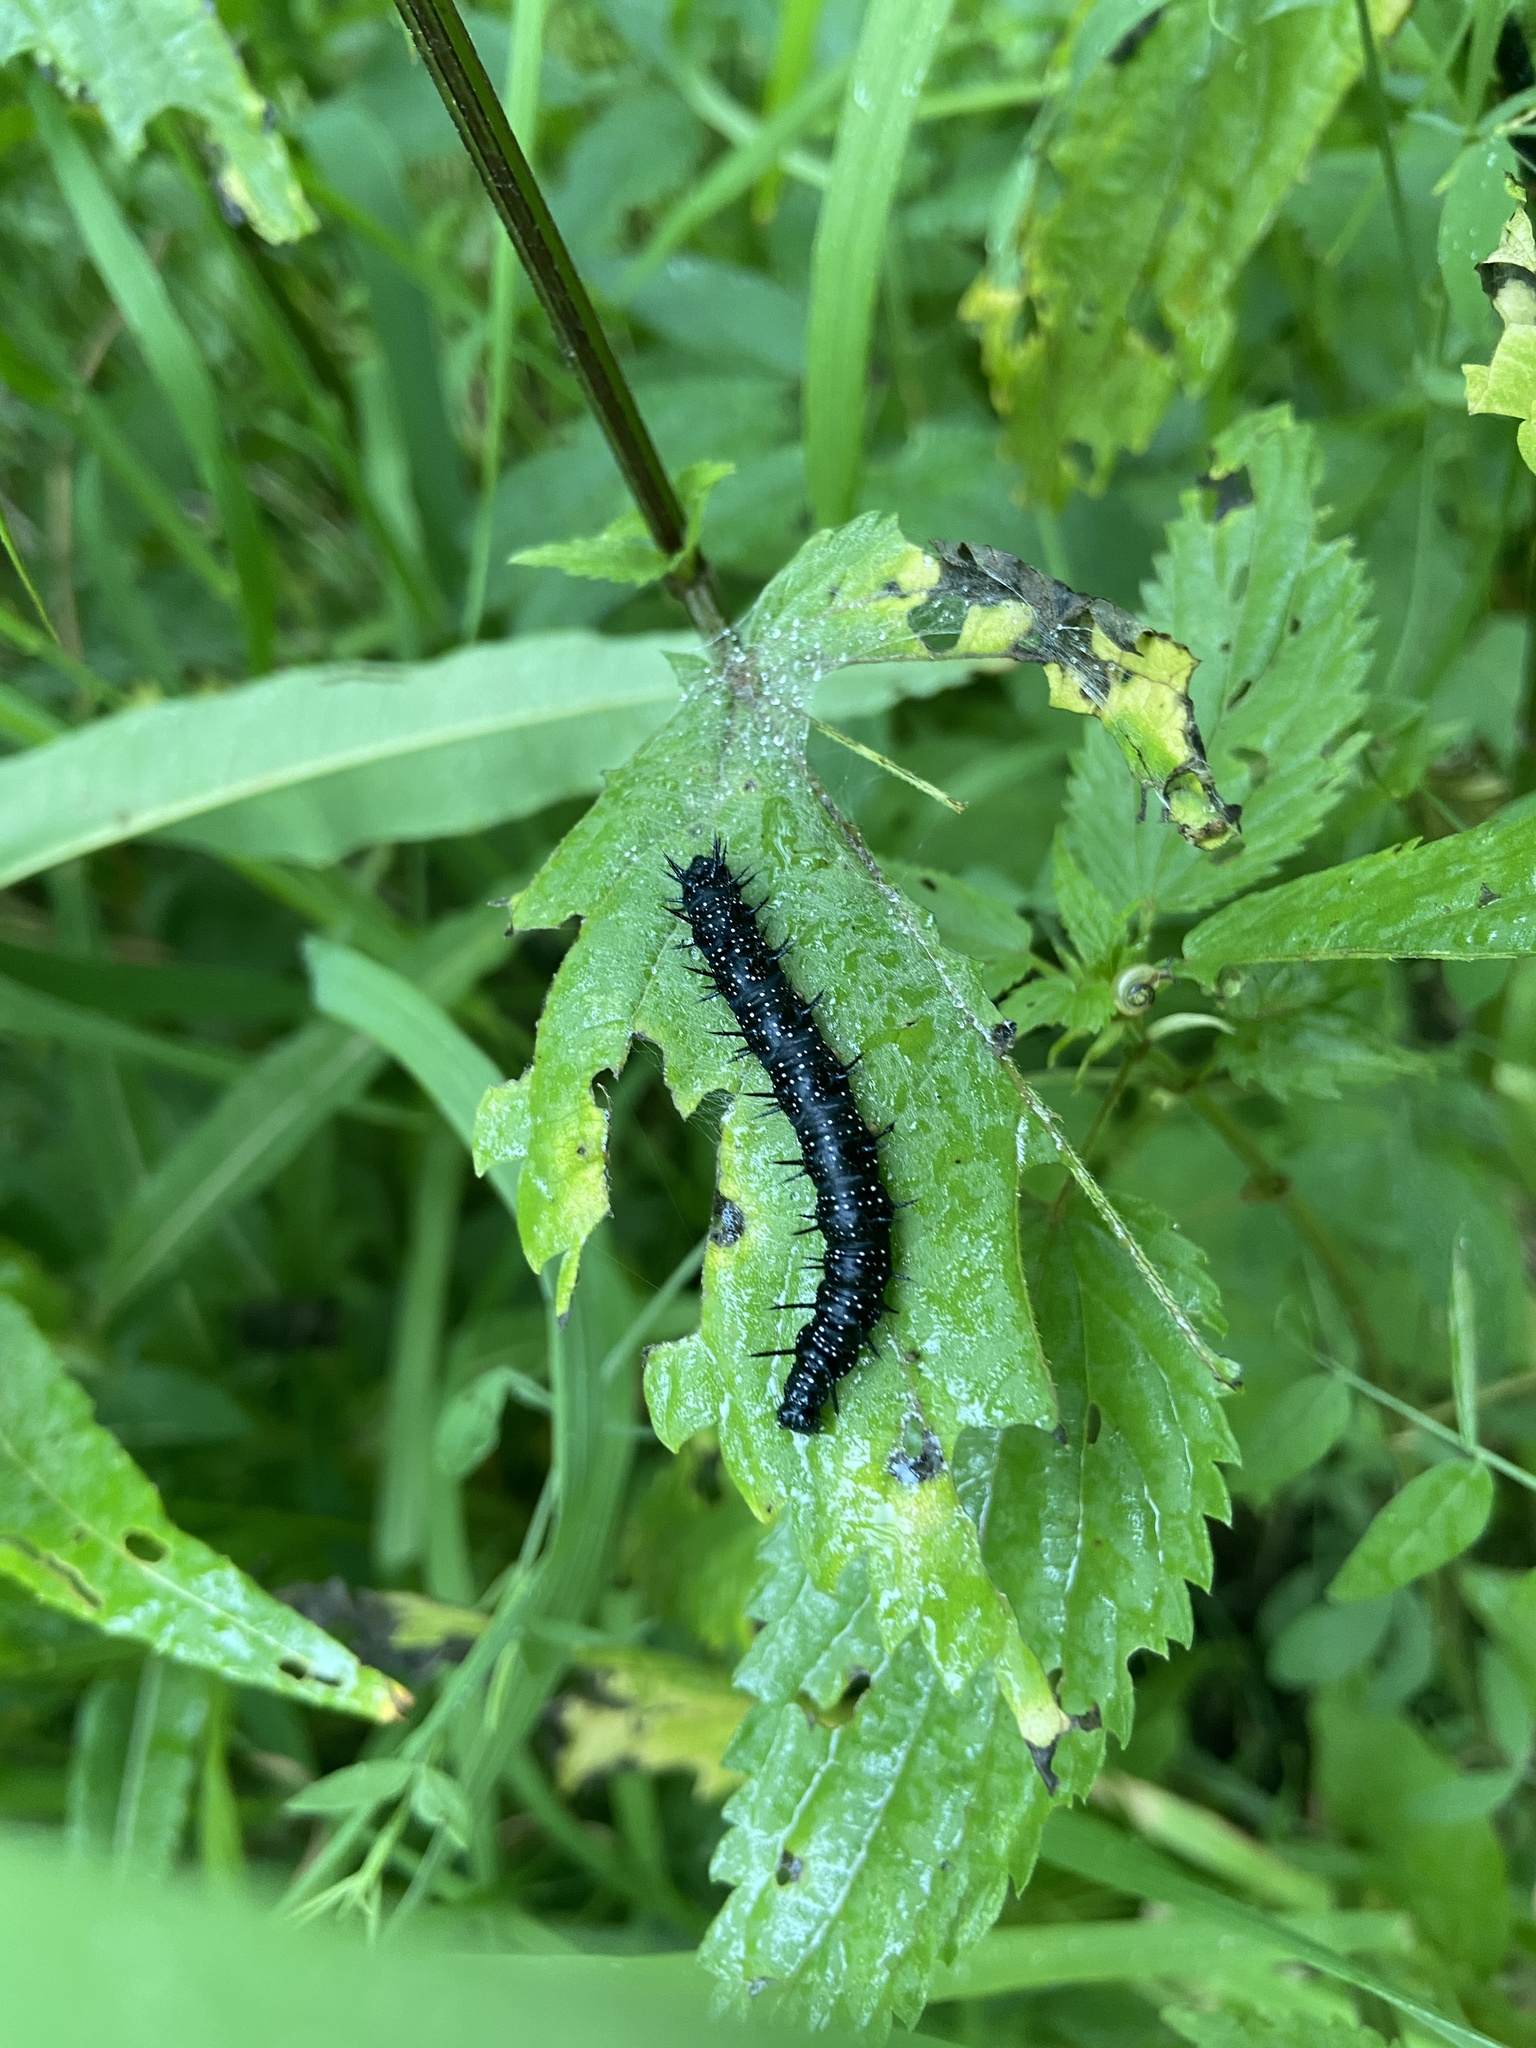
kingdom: Animalia
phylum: Arthropoda
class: Insecta
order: Lepidoptera
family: Nymphalidae
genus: Aglais
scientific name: Aglais io
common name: Peacock
